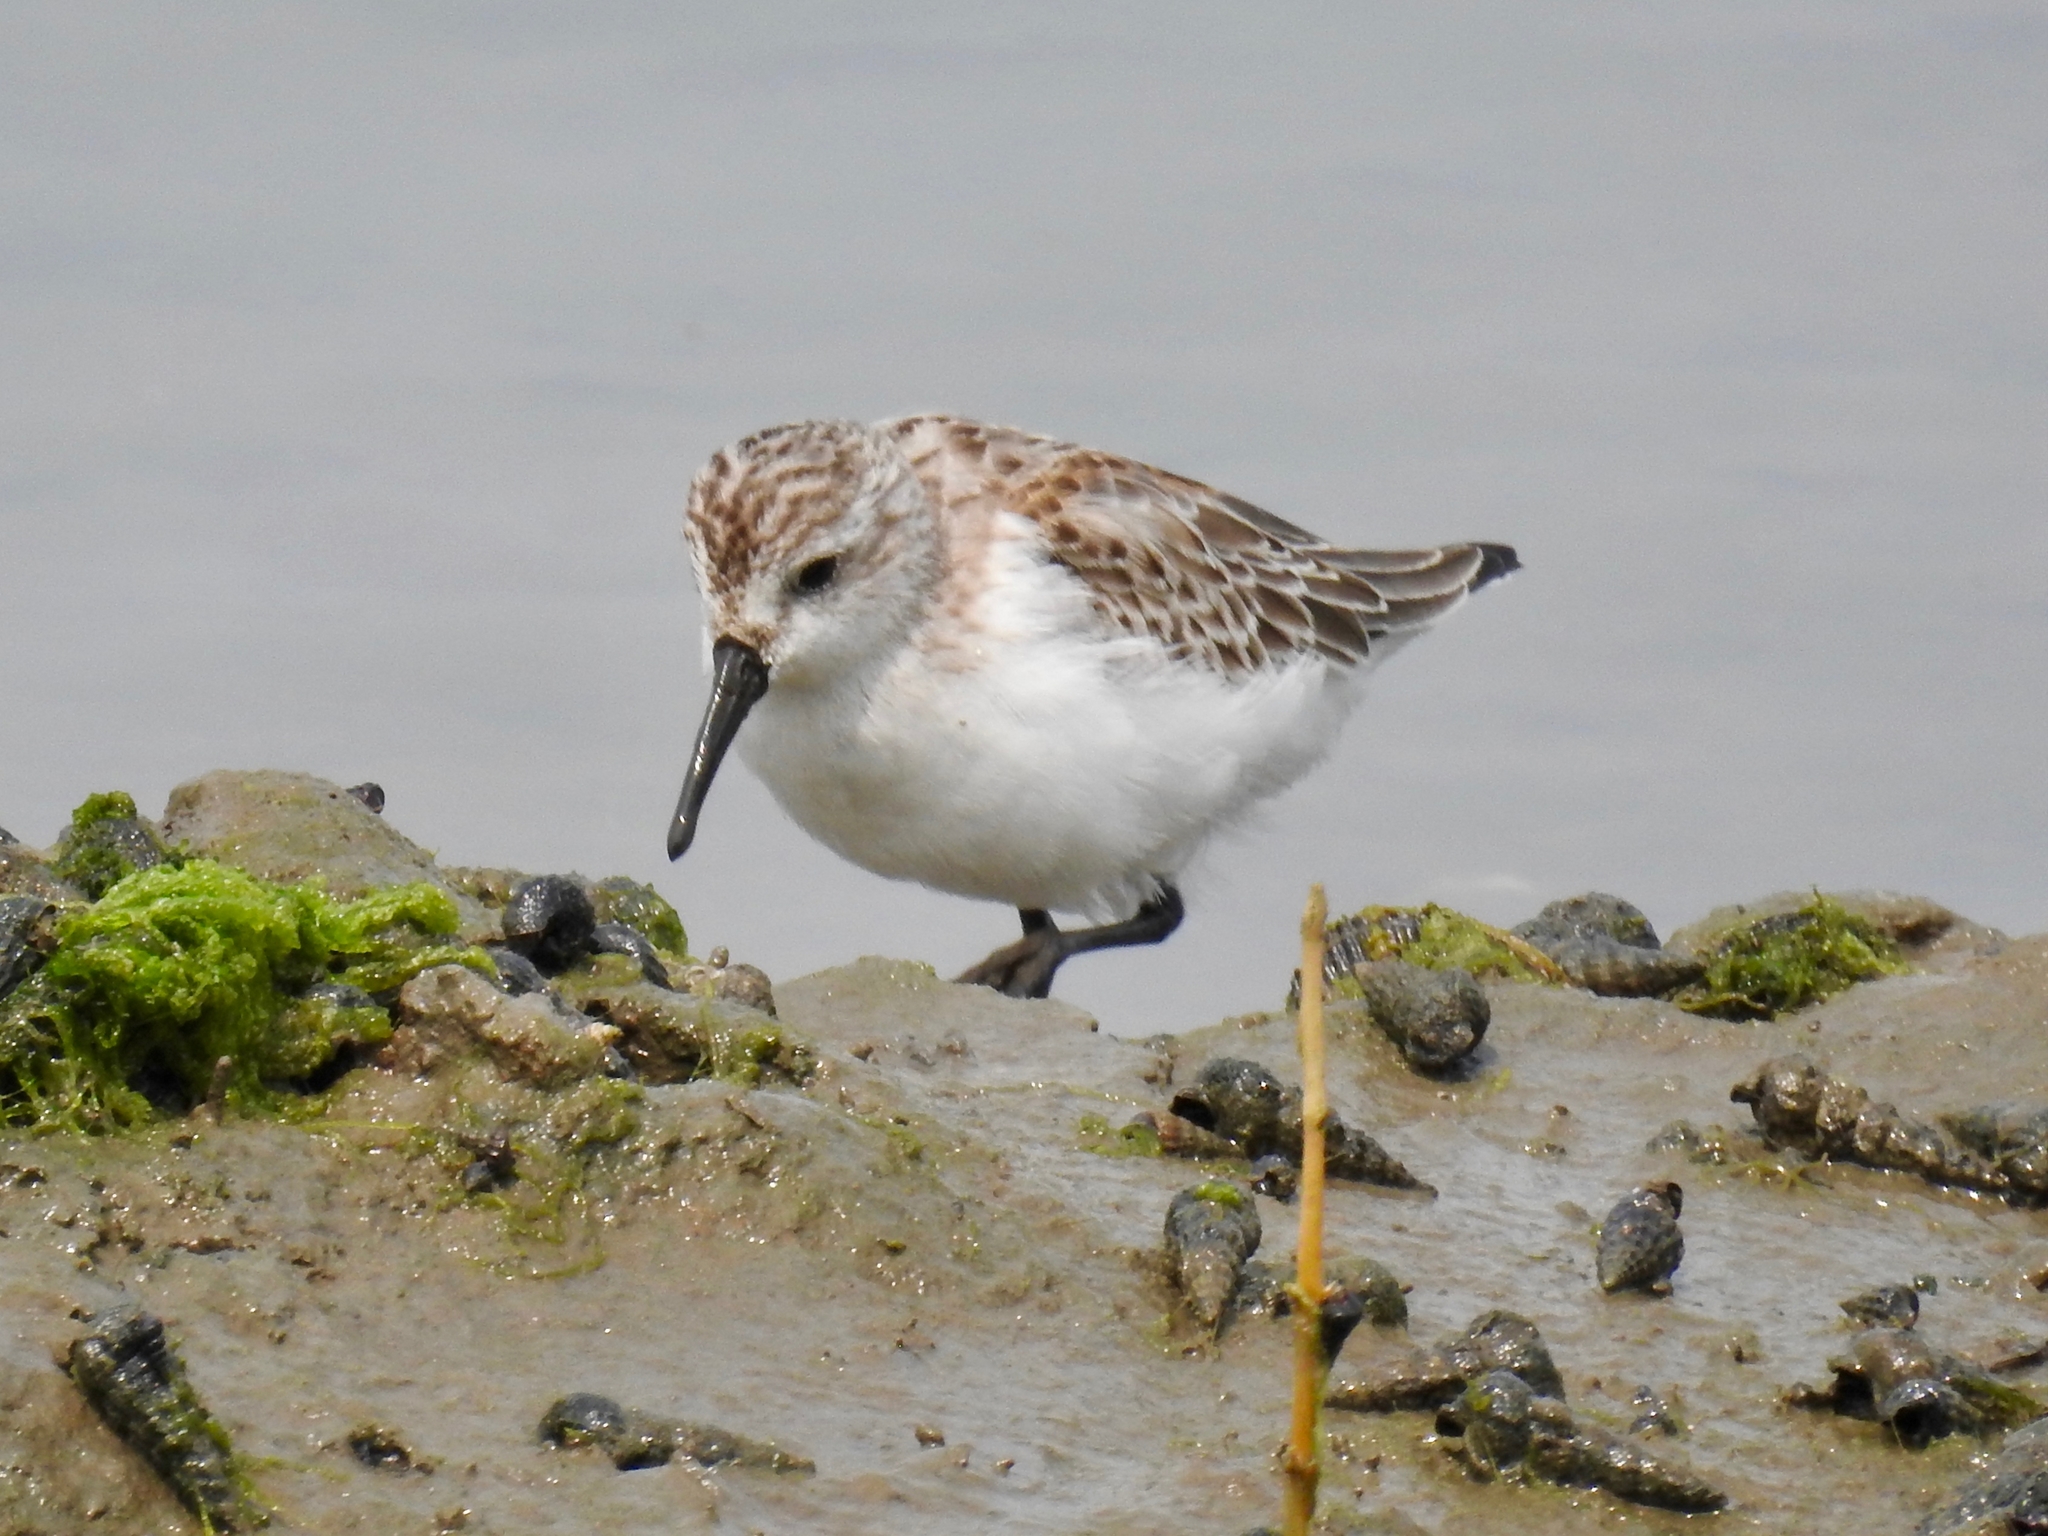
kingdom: Animalia
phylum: Chordata
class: Aves
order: Charadriiformes
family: Scolopacidae
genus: Calidris
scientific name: Calidris mauri
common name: Western sandpiper
